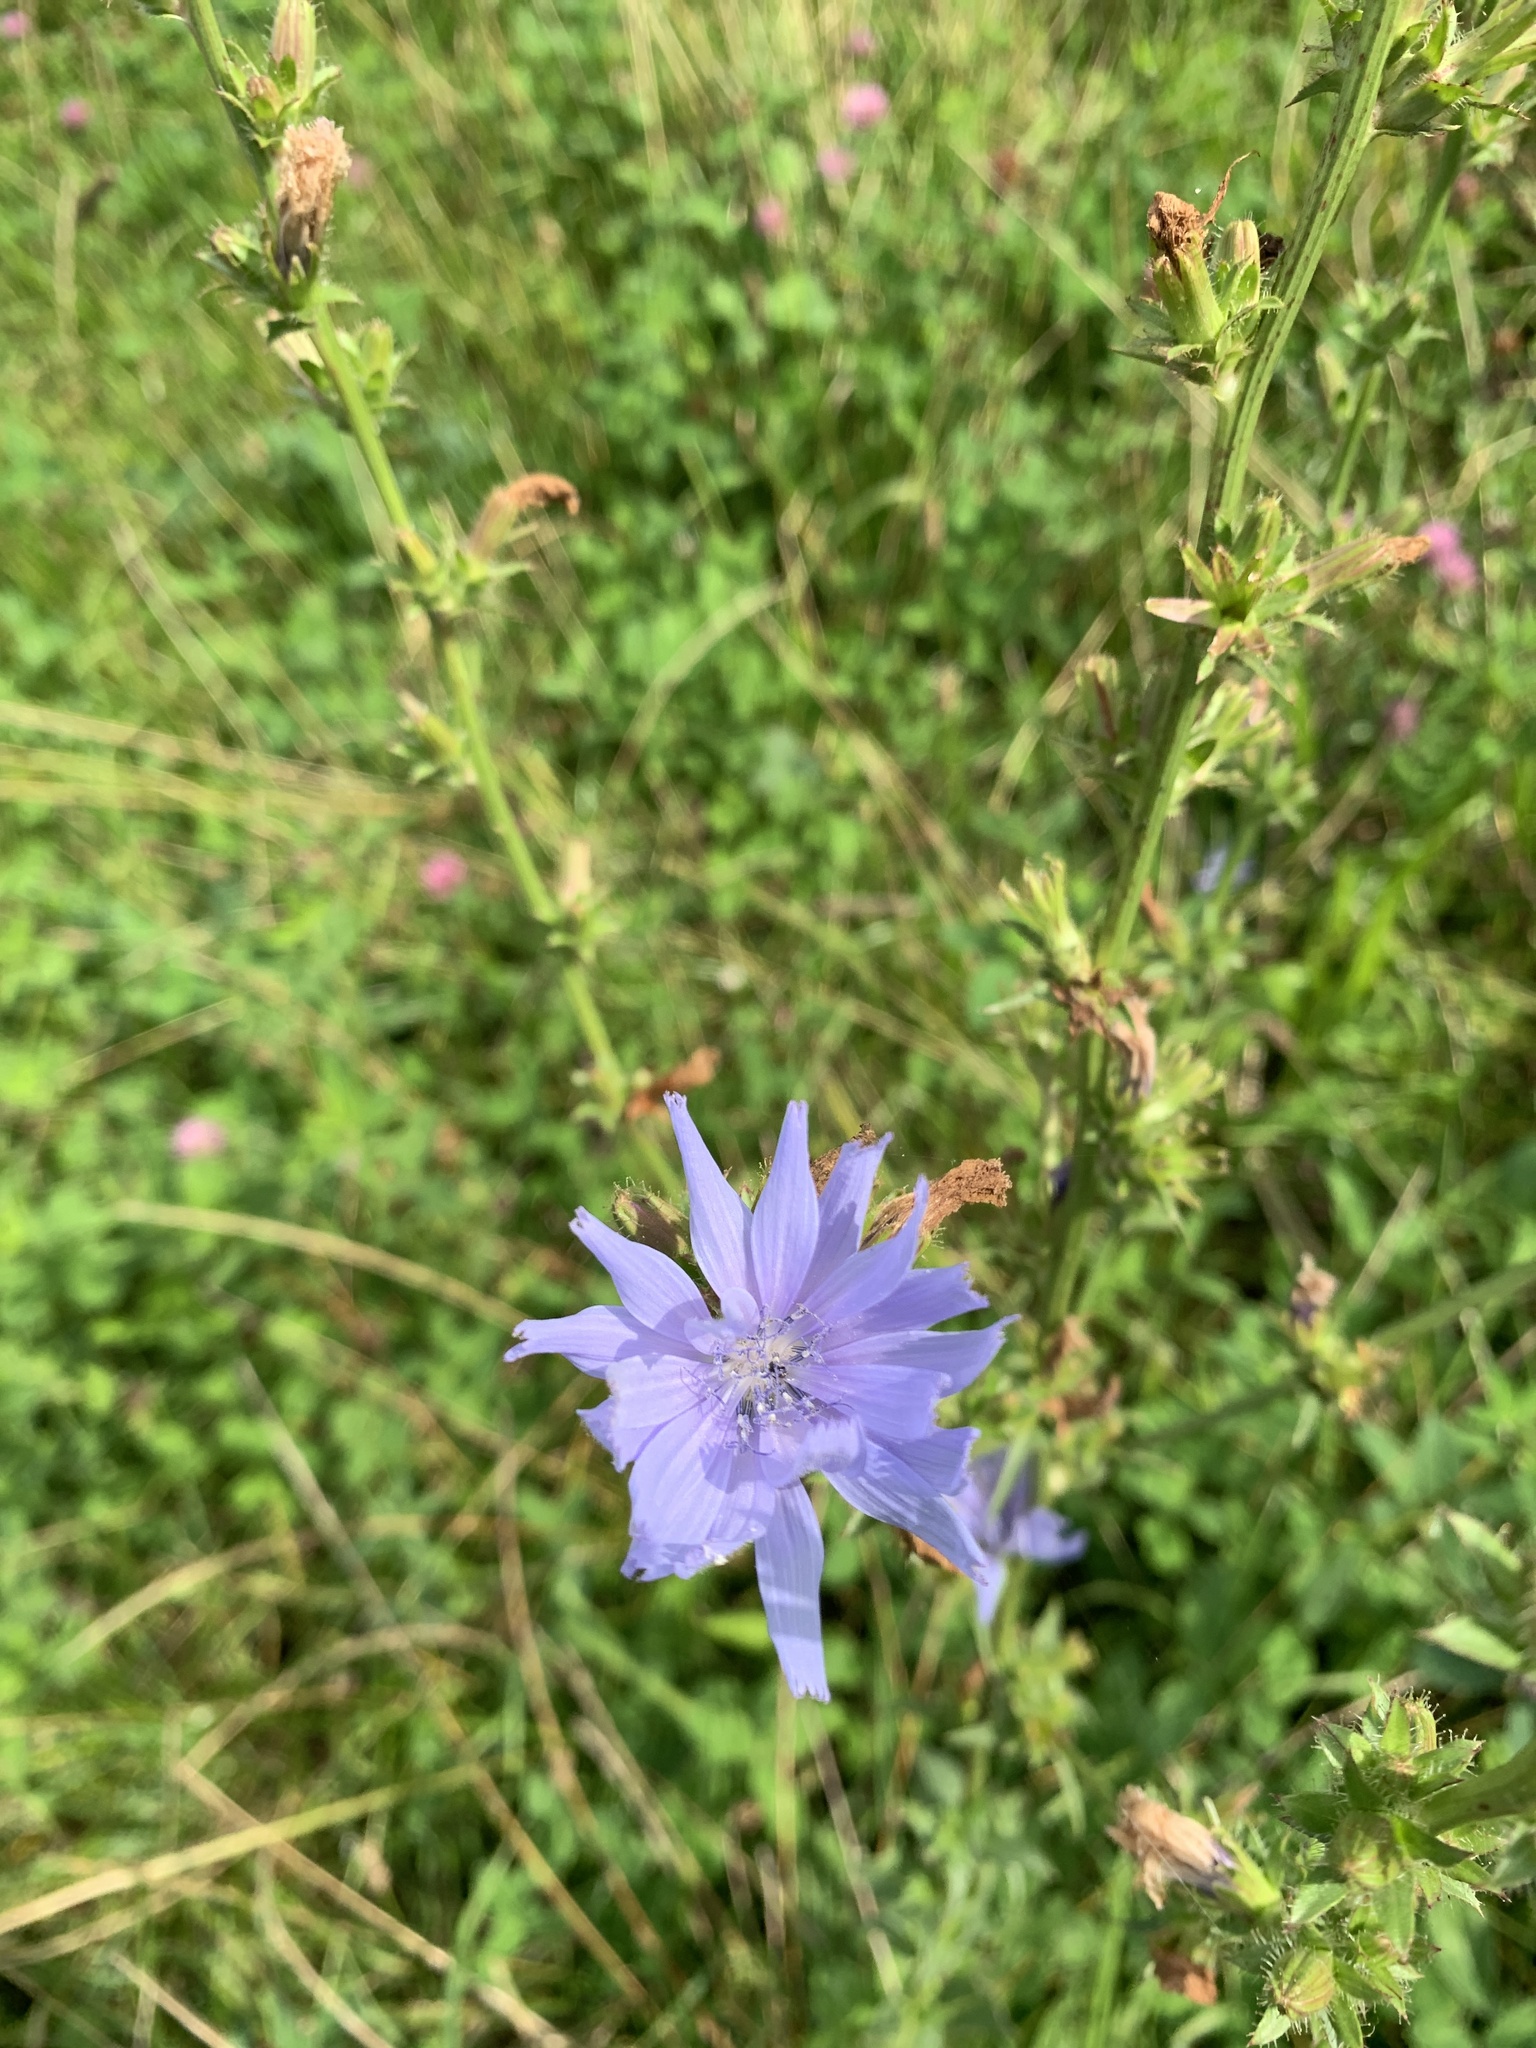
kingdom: Plantae
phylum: Tracheophyta
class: Magnoliopsida
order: Asterales
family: Asteraceae
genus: Cichorium
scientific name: Cichorium intybus
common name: Chicory
